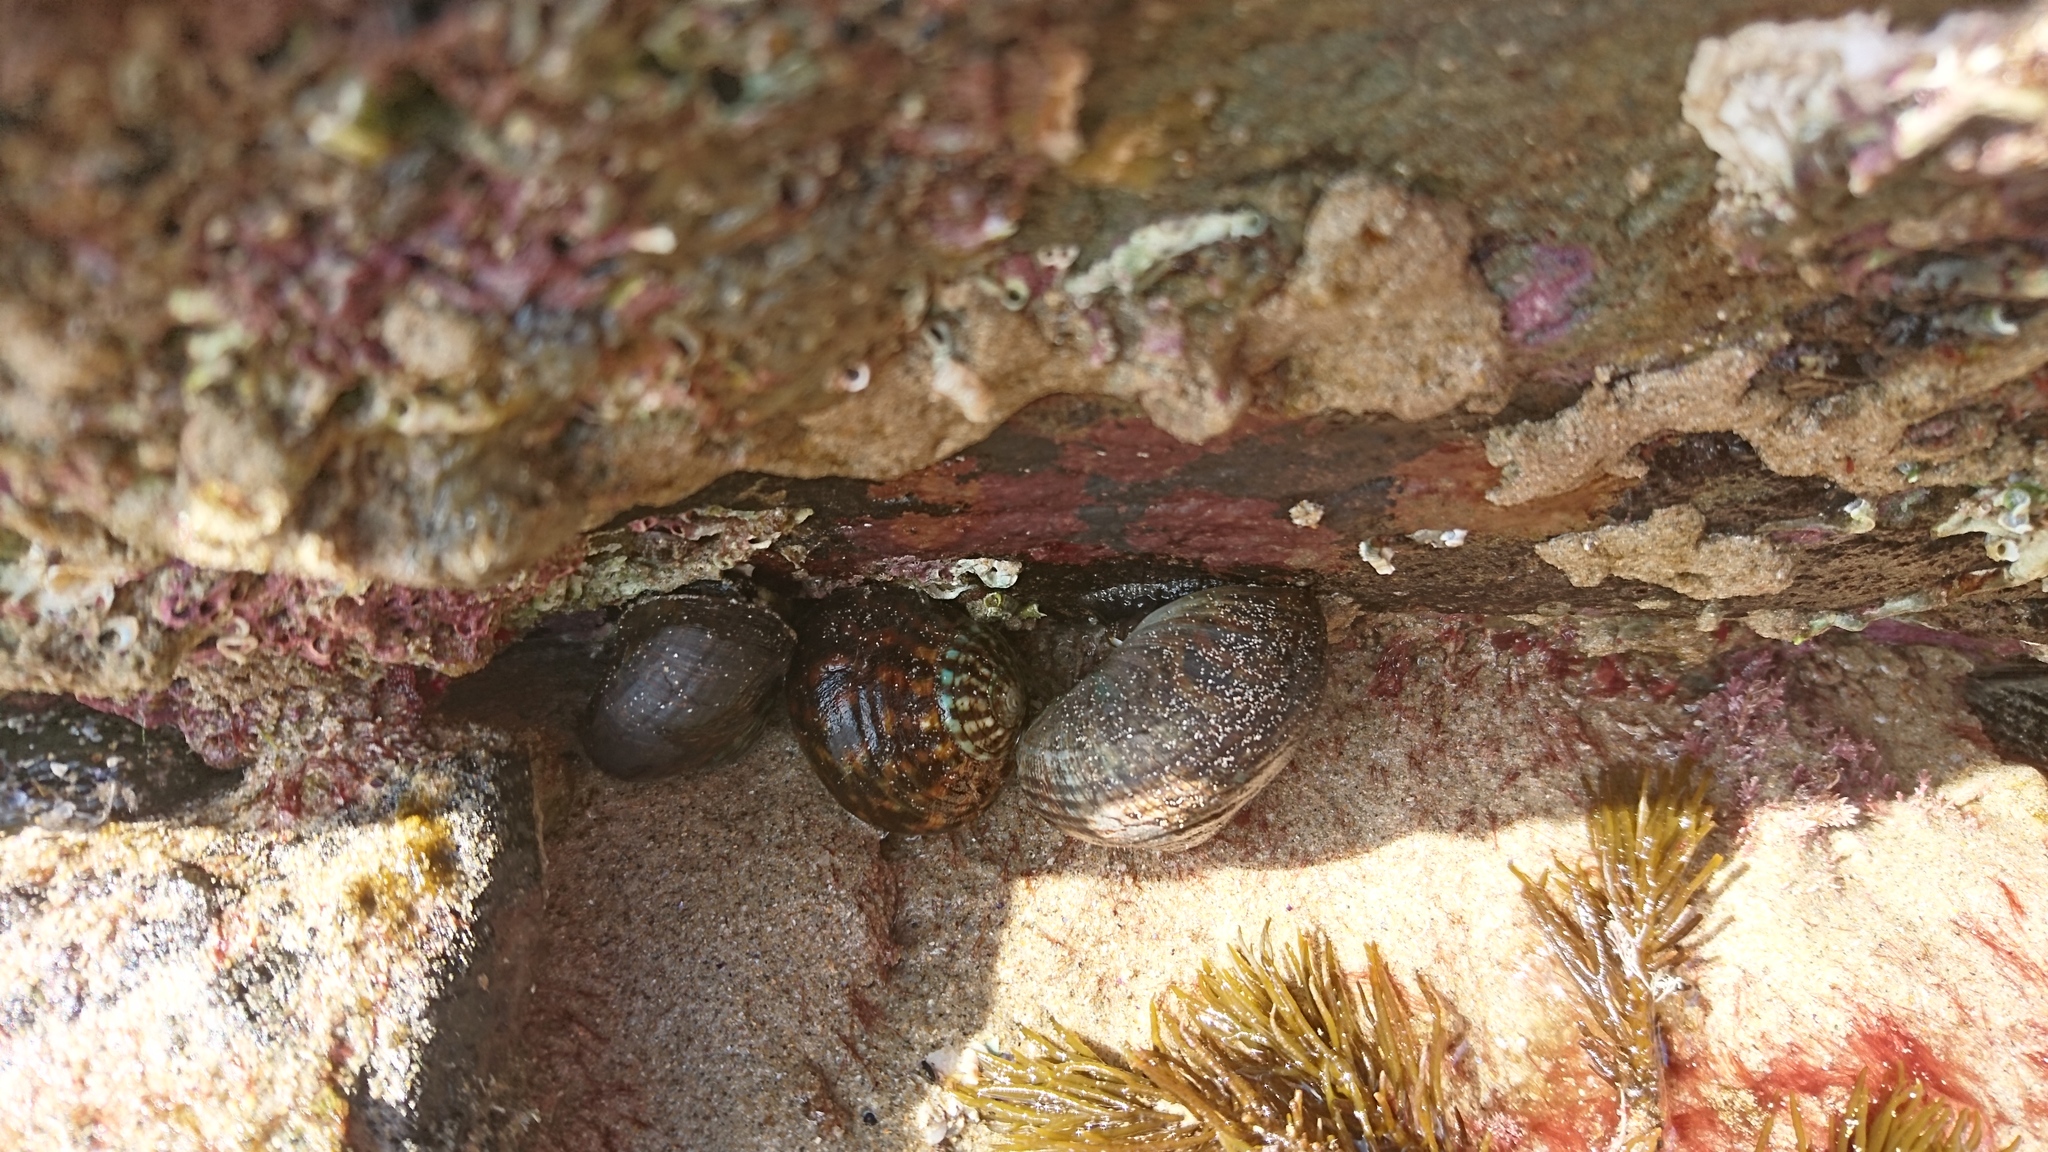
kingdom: Animalia
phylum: Mollusca
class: Gastropoda
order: Trochida
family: Turbinidae
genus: Lunella
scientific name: Lunella undulata
